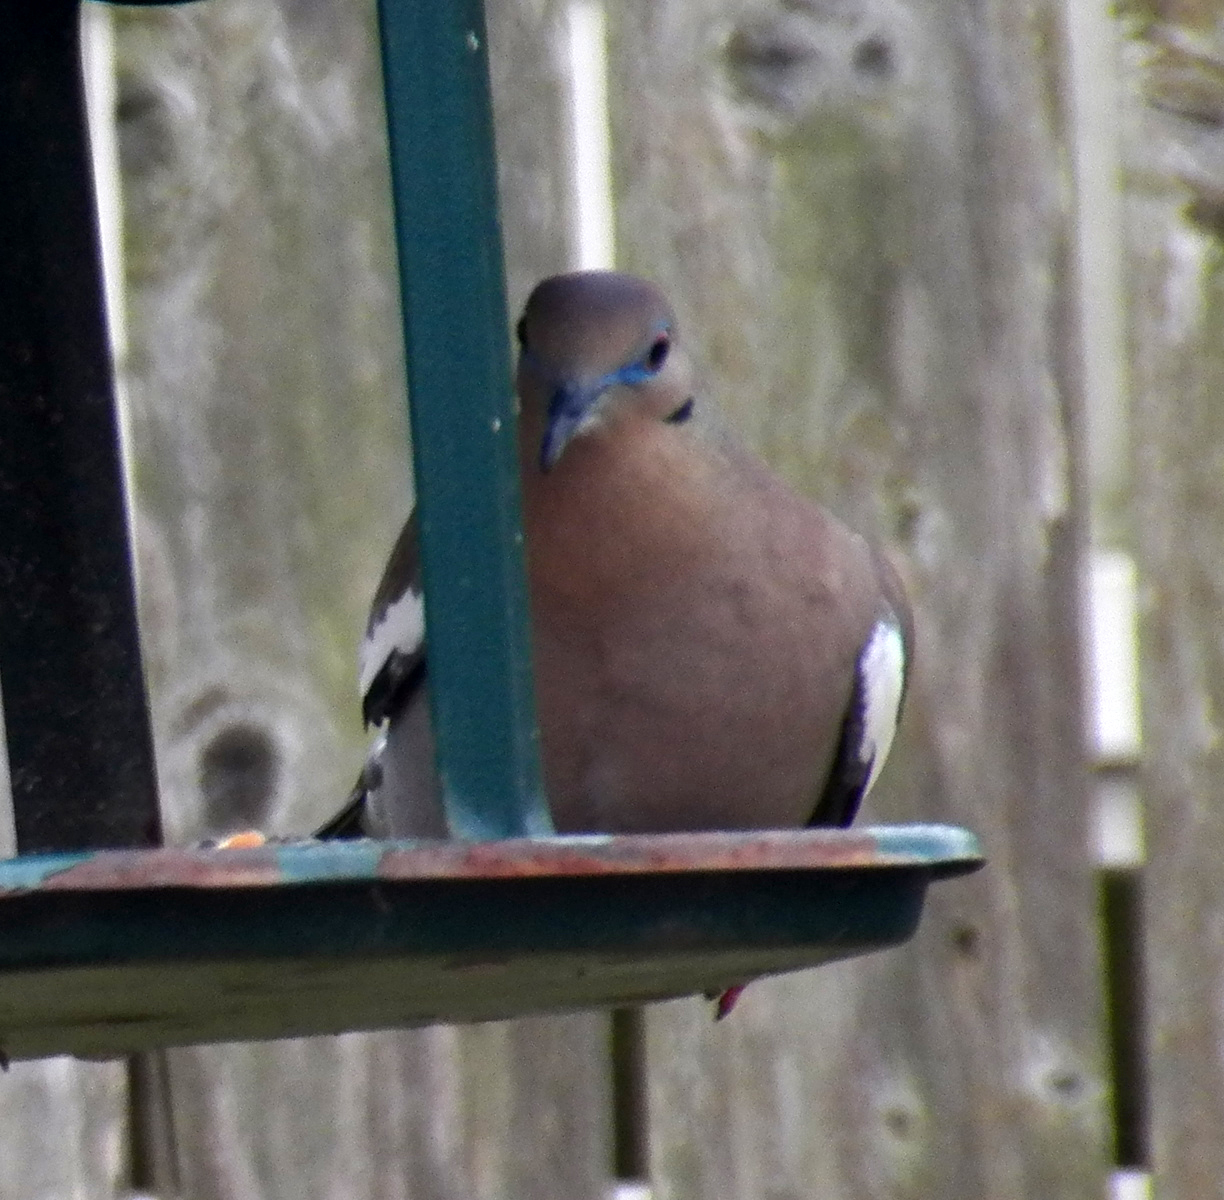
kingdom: Animalia
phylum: Chordata
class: Aves
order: Columbiformes
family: Columbidae
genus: Zenaida
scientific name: Zenaida asiatica
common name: White-winged dove
